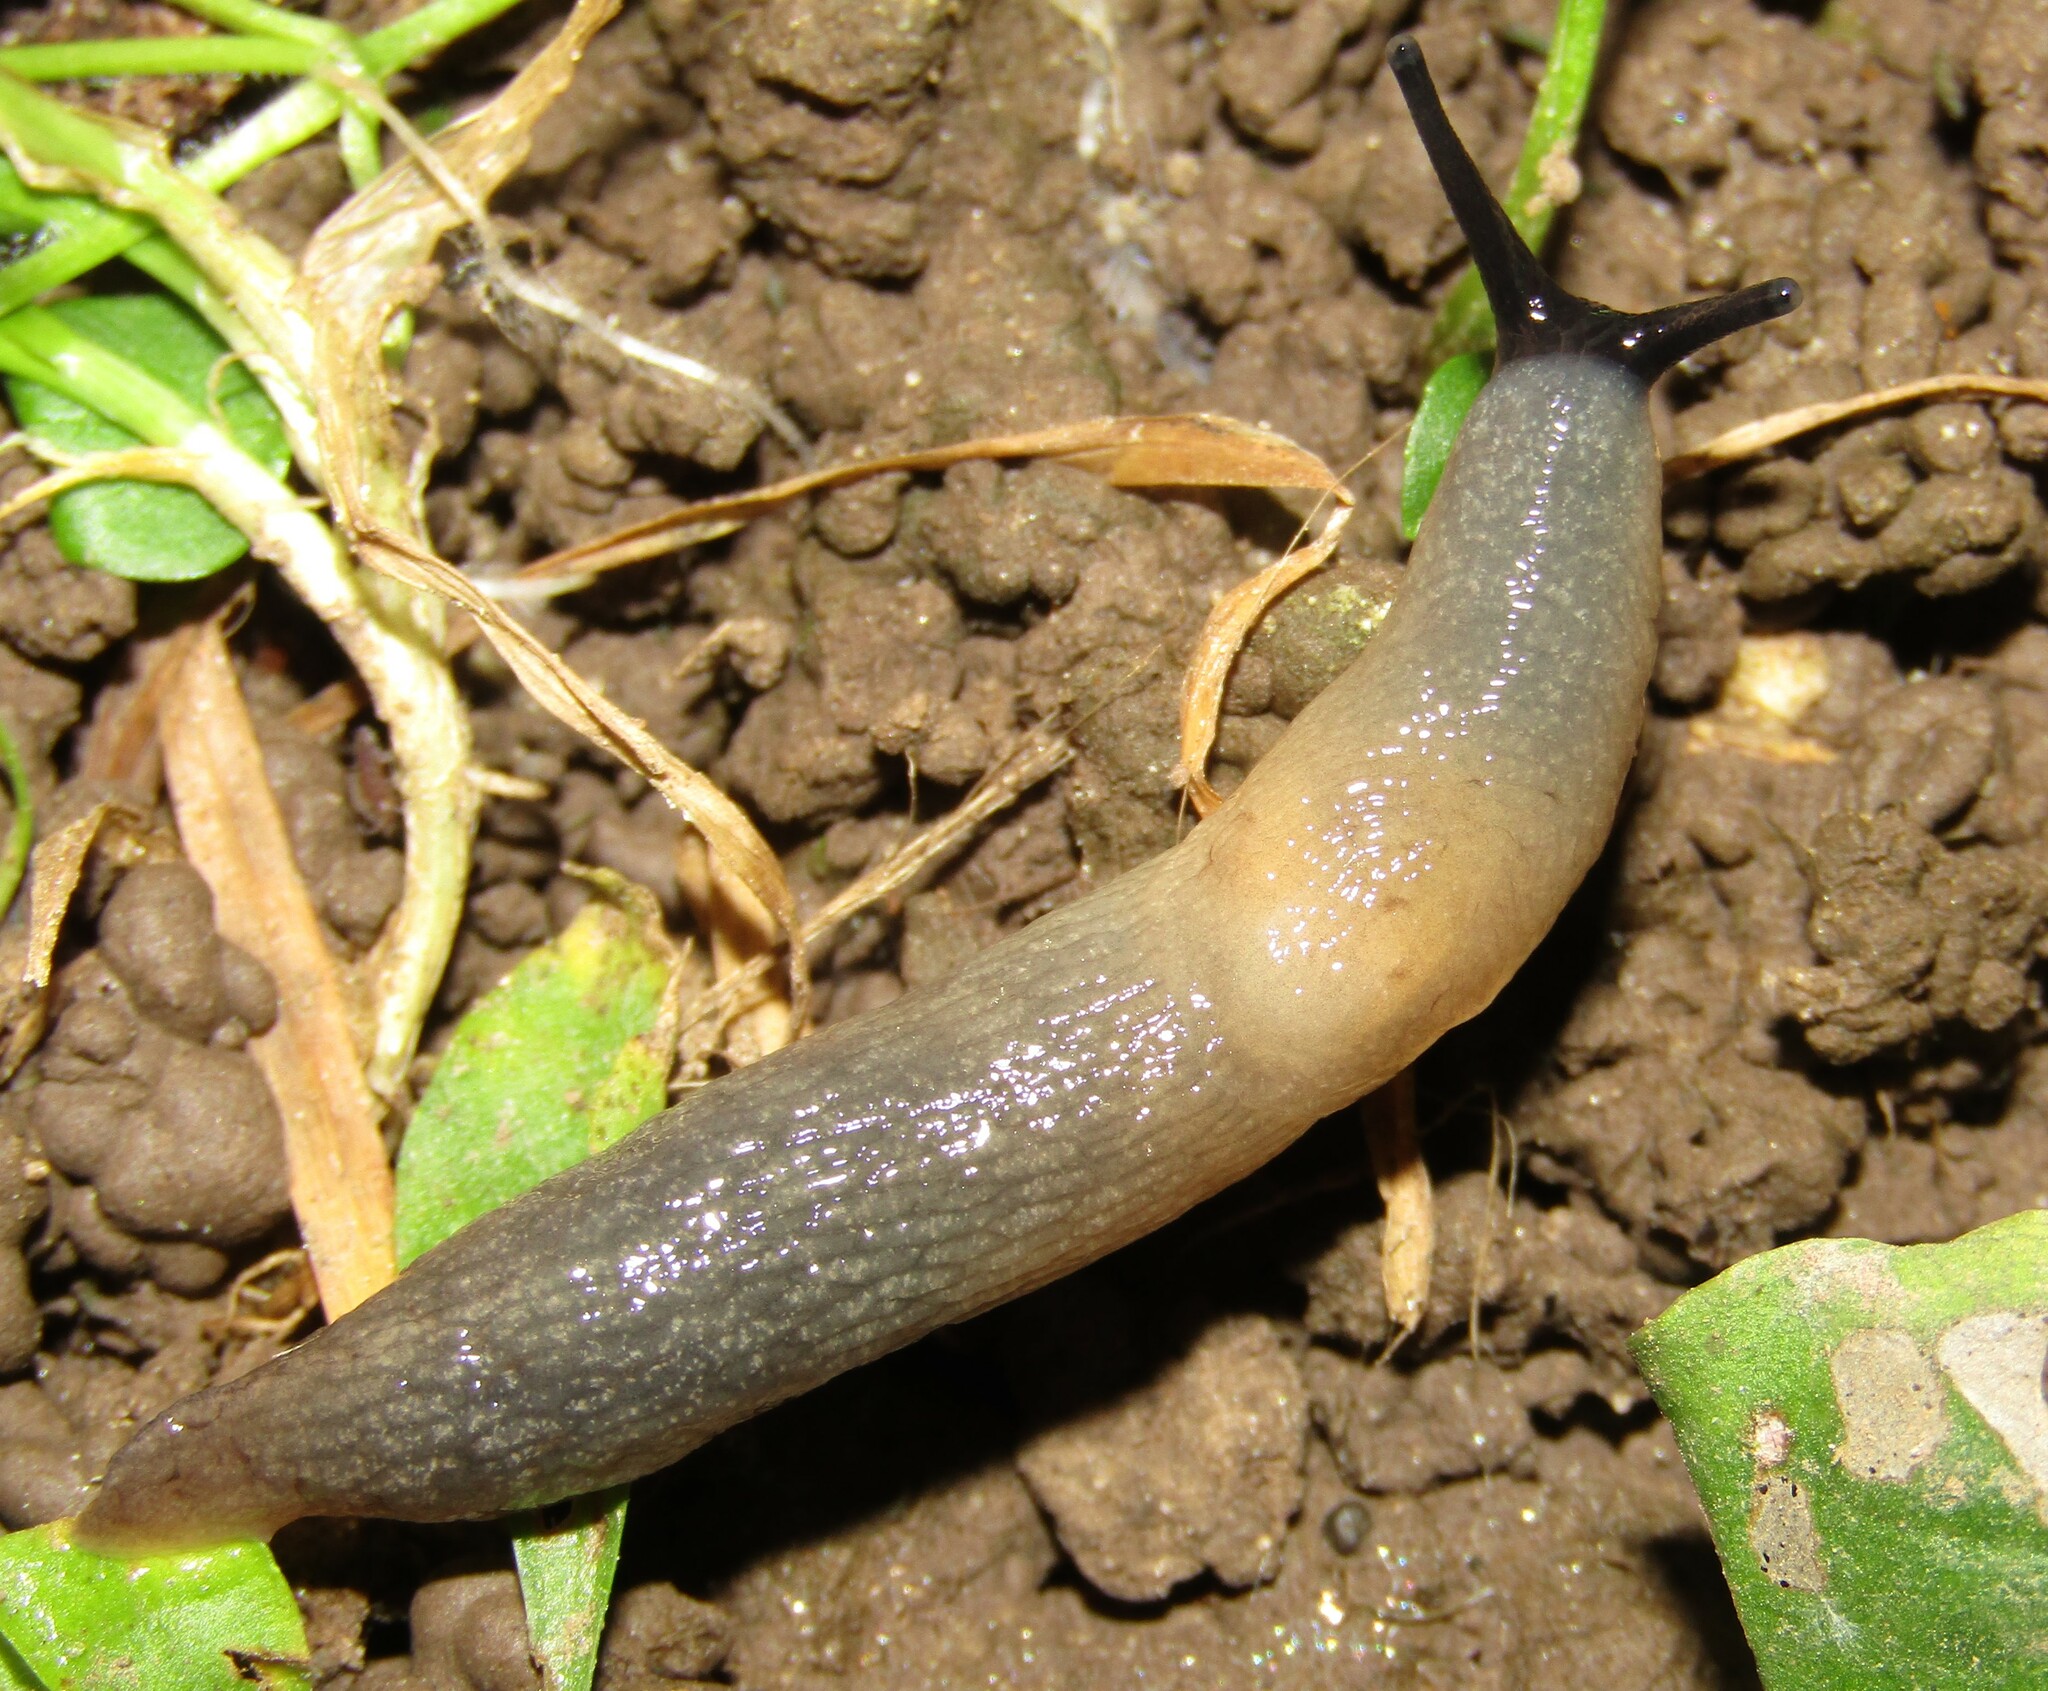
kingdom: Animalia
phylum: Mollusca
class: Gastropoda
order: Stylommatophora
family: Agriolimacidae
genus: Krynickillus
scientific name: Krynickillus melanocephalus
